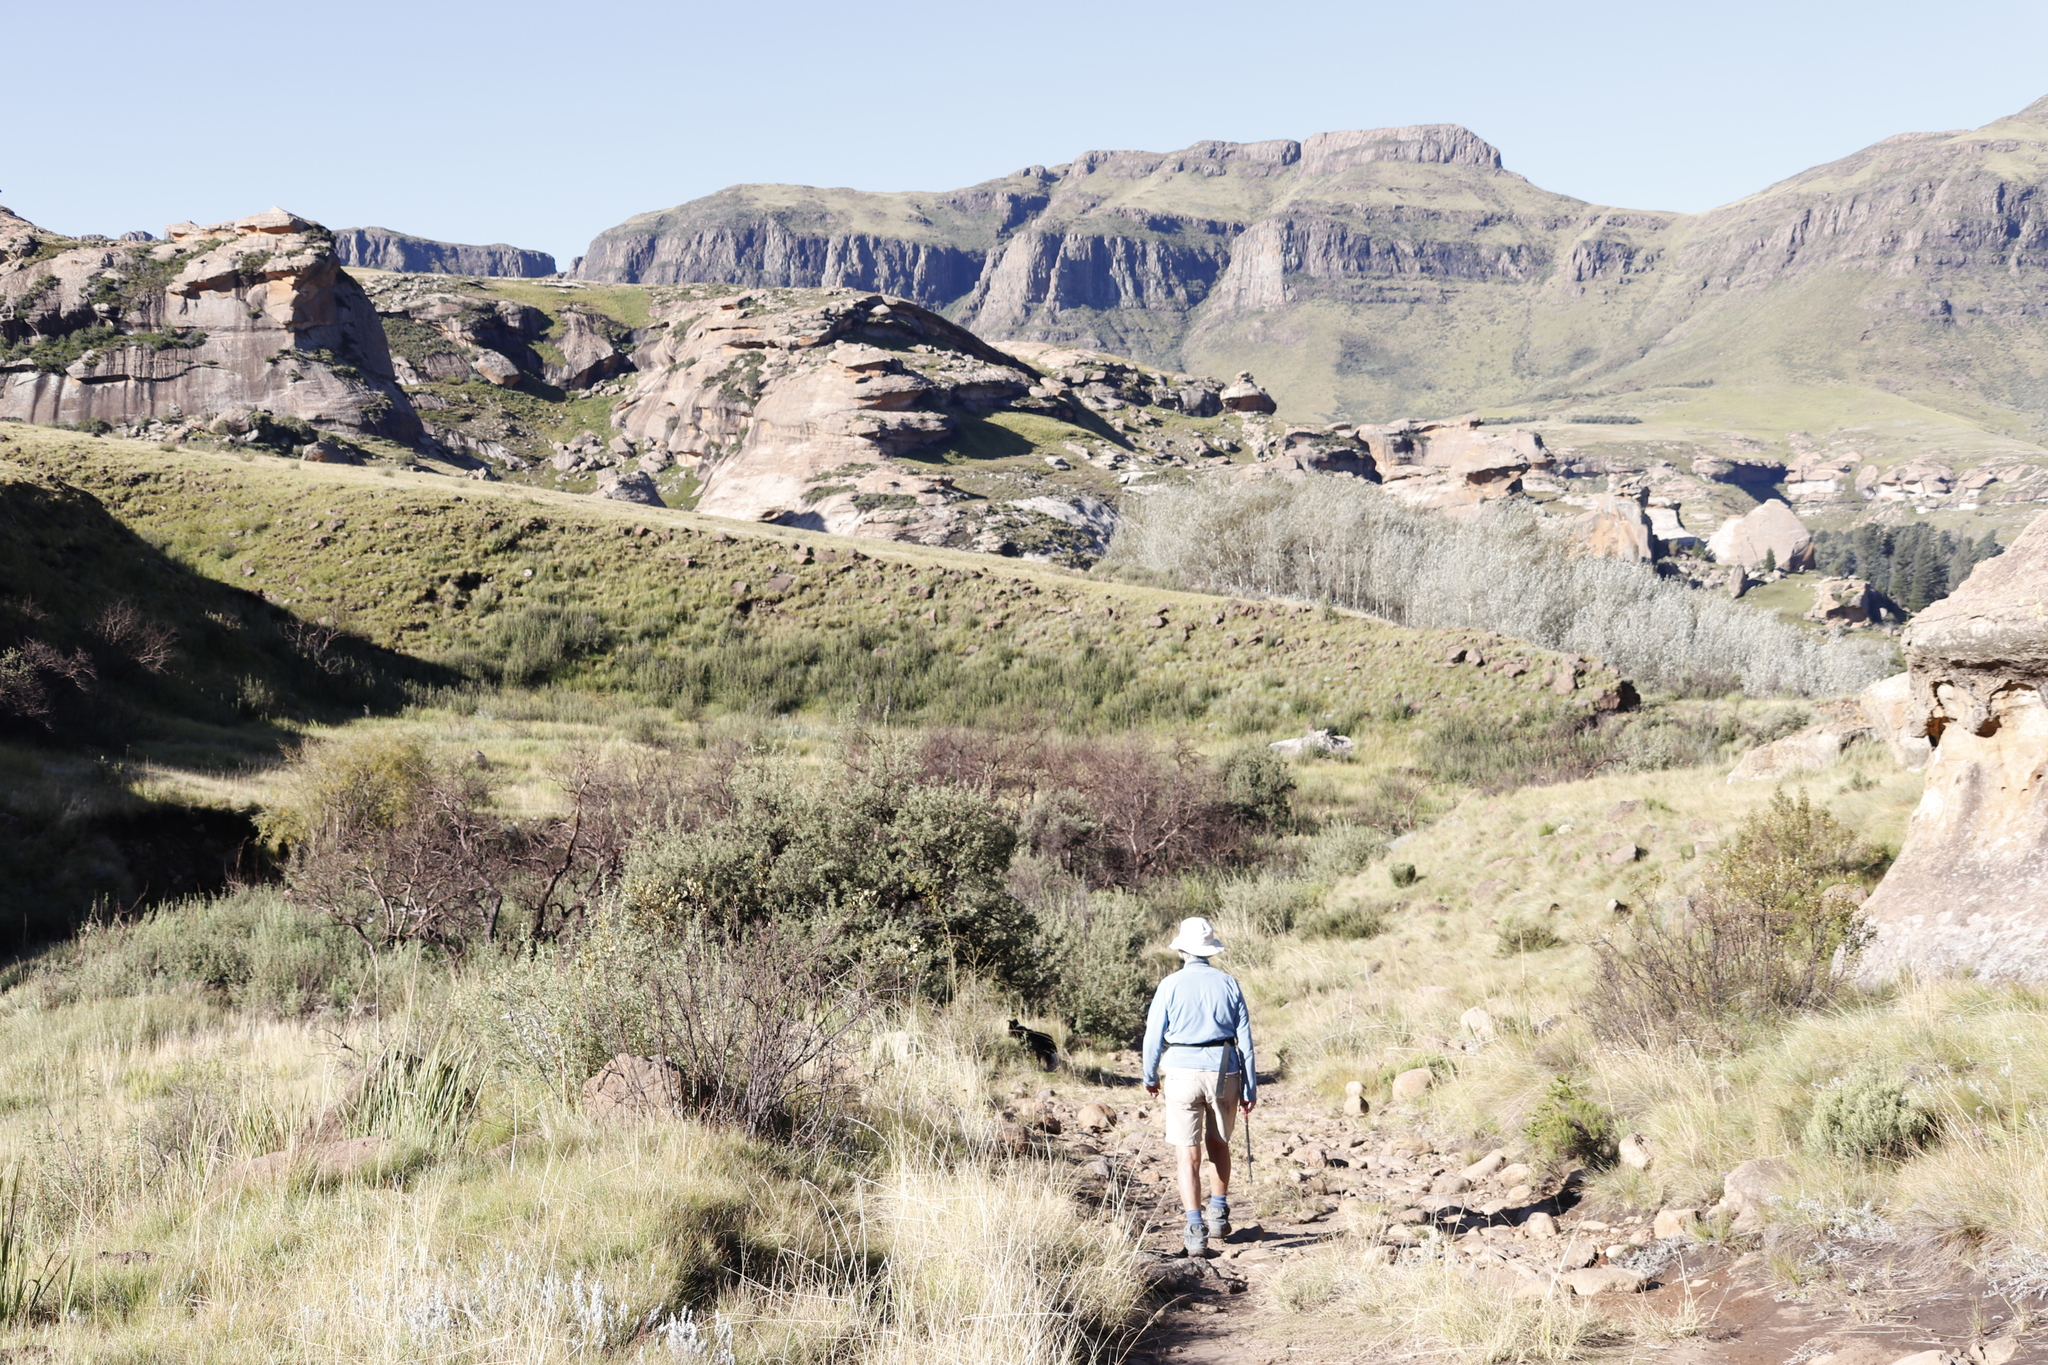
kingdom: Plantae
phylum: Tracheophyta
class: Magnoliopsida
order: Rosales
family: Rosaceae
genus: Leucosidea
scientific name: Leucosidea sericea
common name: Oldwood
